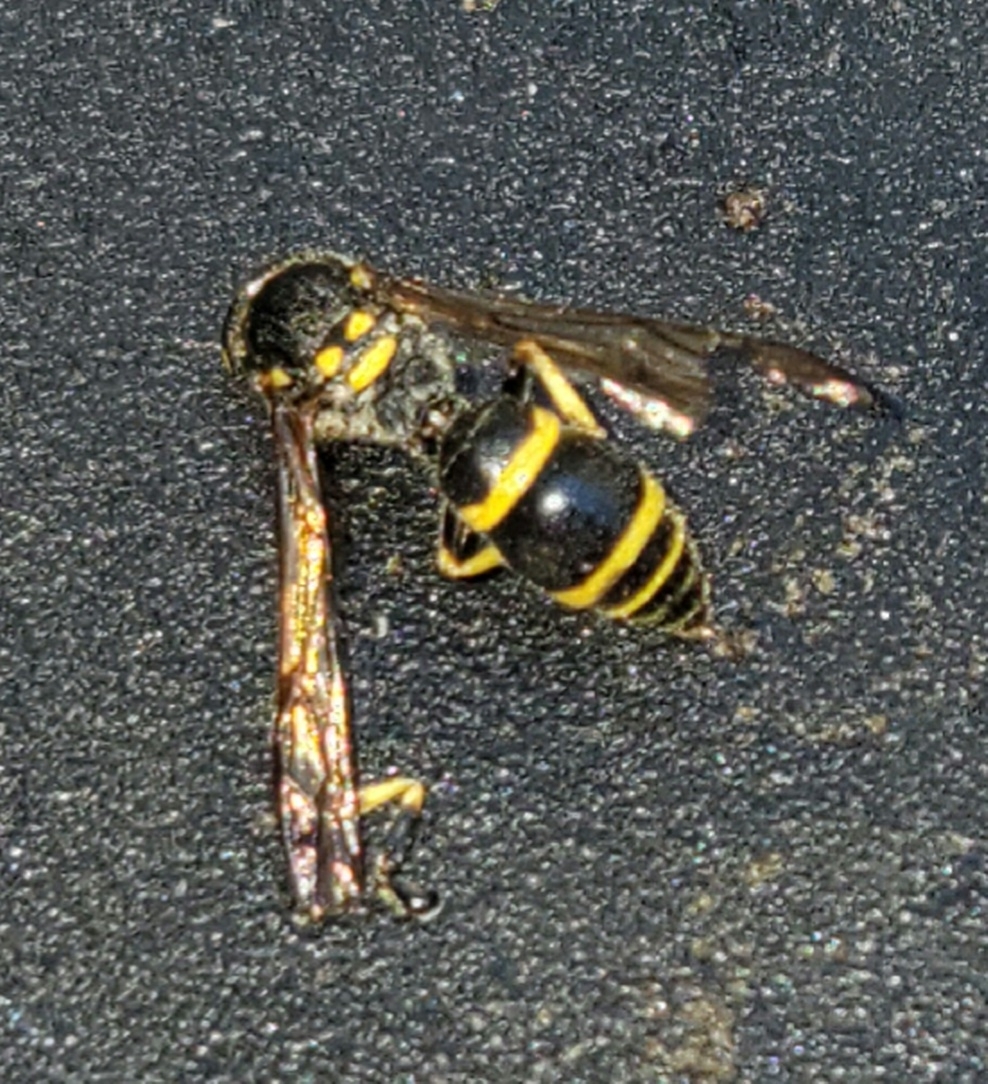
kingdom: Animalia
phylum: Arthropoda
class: Insecta
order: Hymenoptera
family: Vespidae
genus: Ancistrocerus
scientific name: Ancistrocerus adiabatus
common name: Bramble mason wasp
